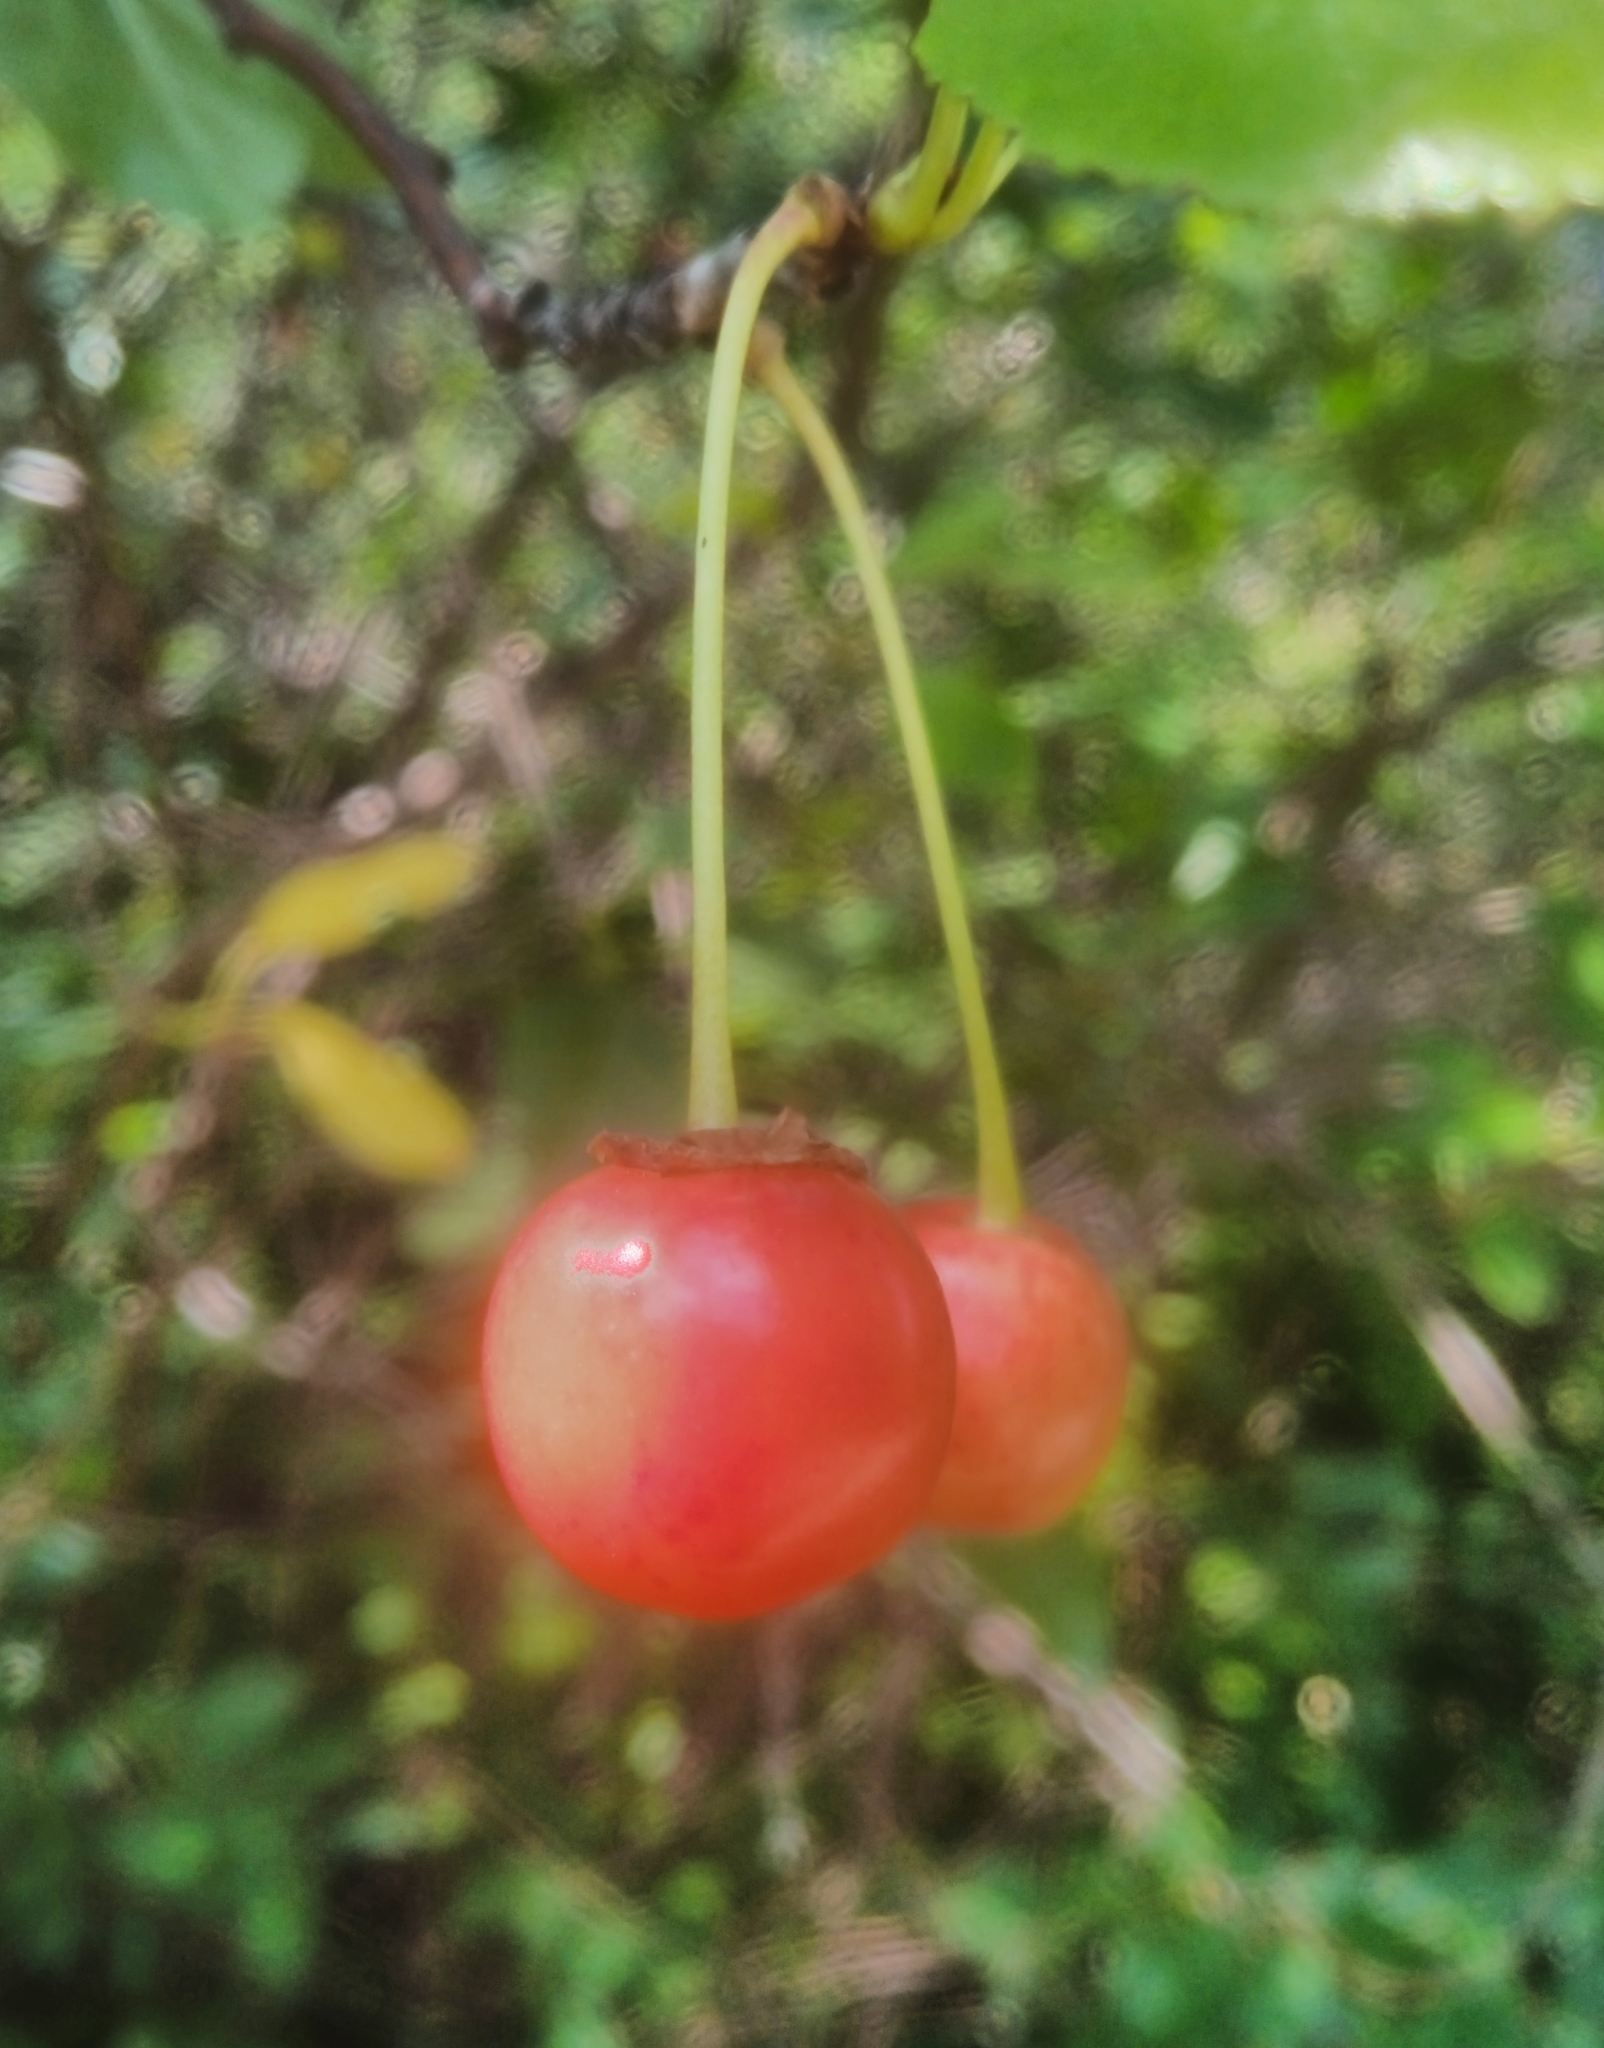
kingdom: Plantae
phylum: Tracheophyta
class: Magnoliopsida
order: Rosales
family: Rosaceae
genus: Prunus
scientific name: Prunus cerasus
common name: Morello cherry
